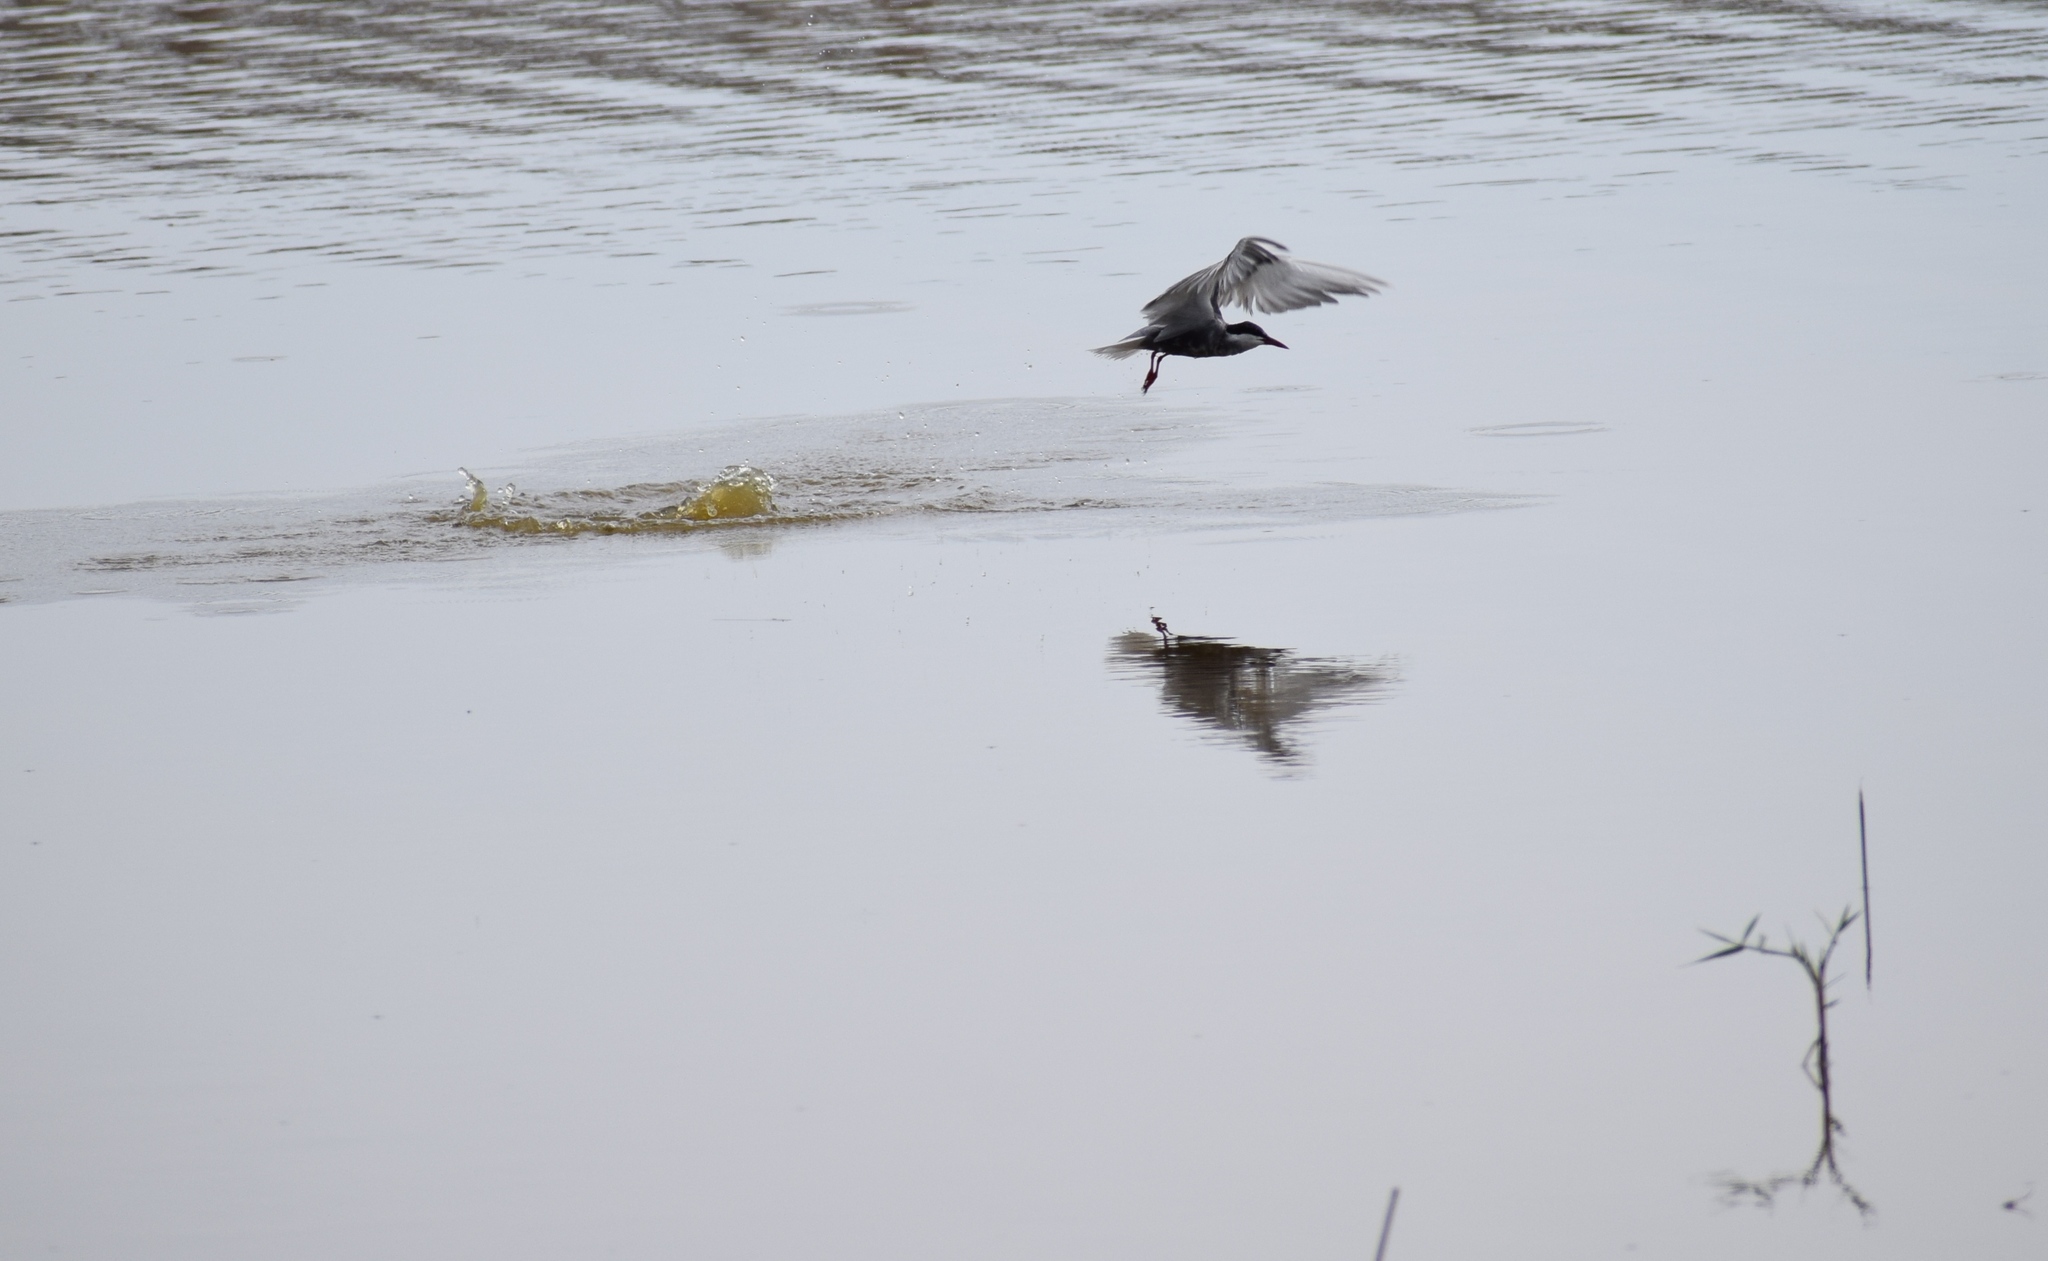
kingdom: Animalia
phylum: Chordata
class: Aves
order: Charadriiformes
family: Laridae
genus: Chlidonias
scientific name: Chlidonias hybrida
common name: Whiskered tern
